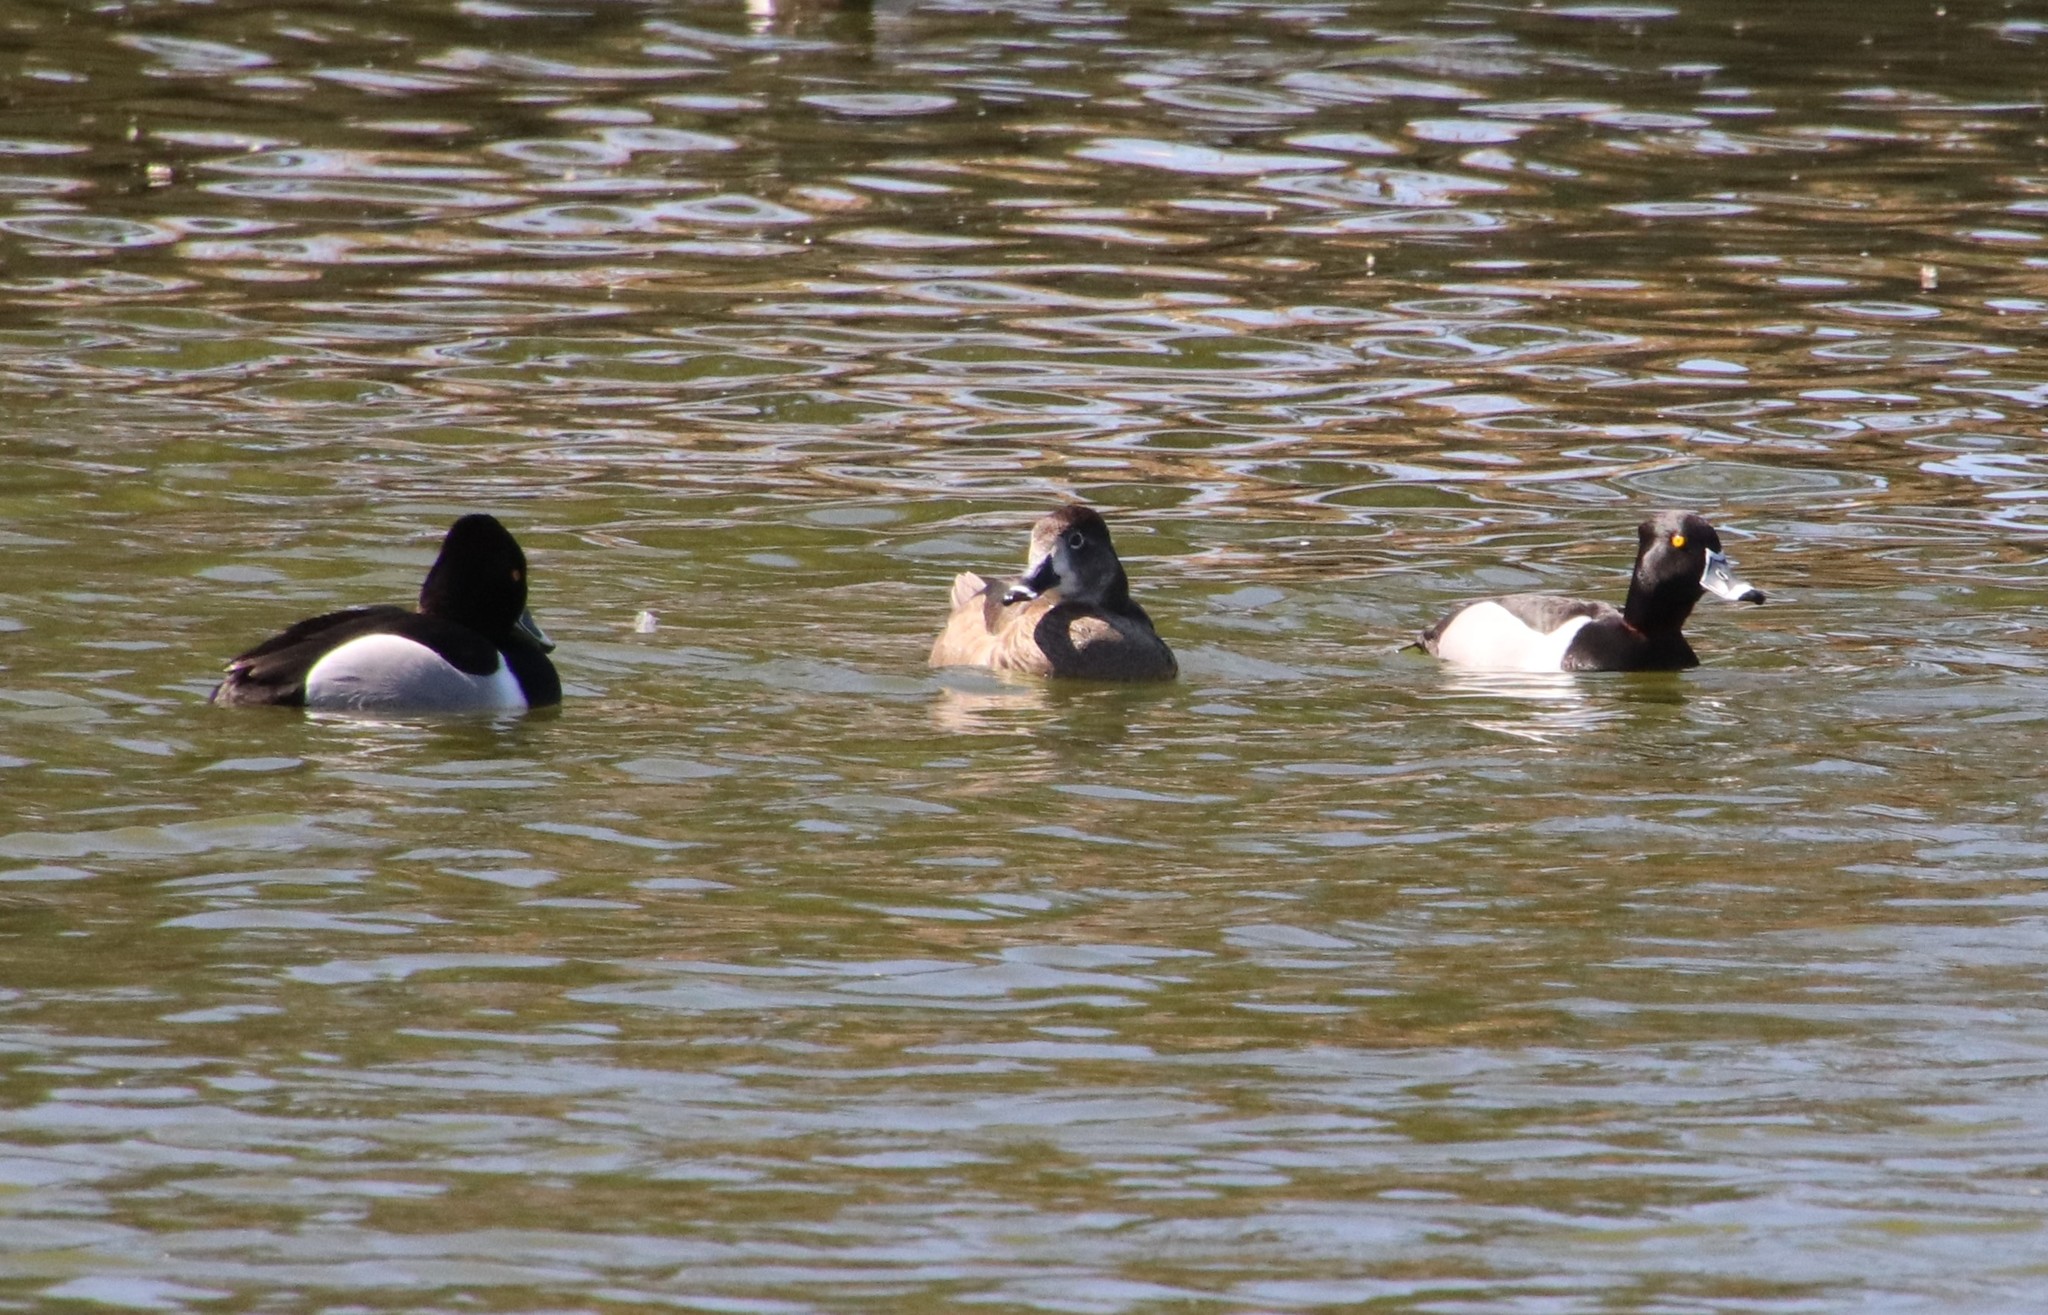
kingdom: Animalia
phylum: Chordata
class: Aves
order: Anseriformes
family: Anatidae
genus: Aythya
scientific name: Aythya collaris
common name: Ring-necked duck
